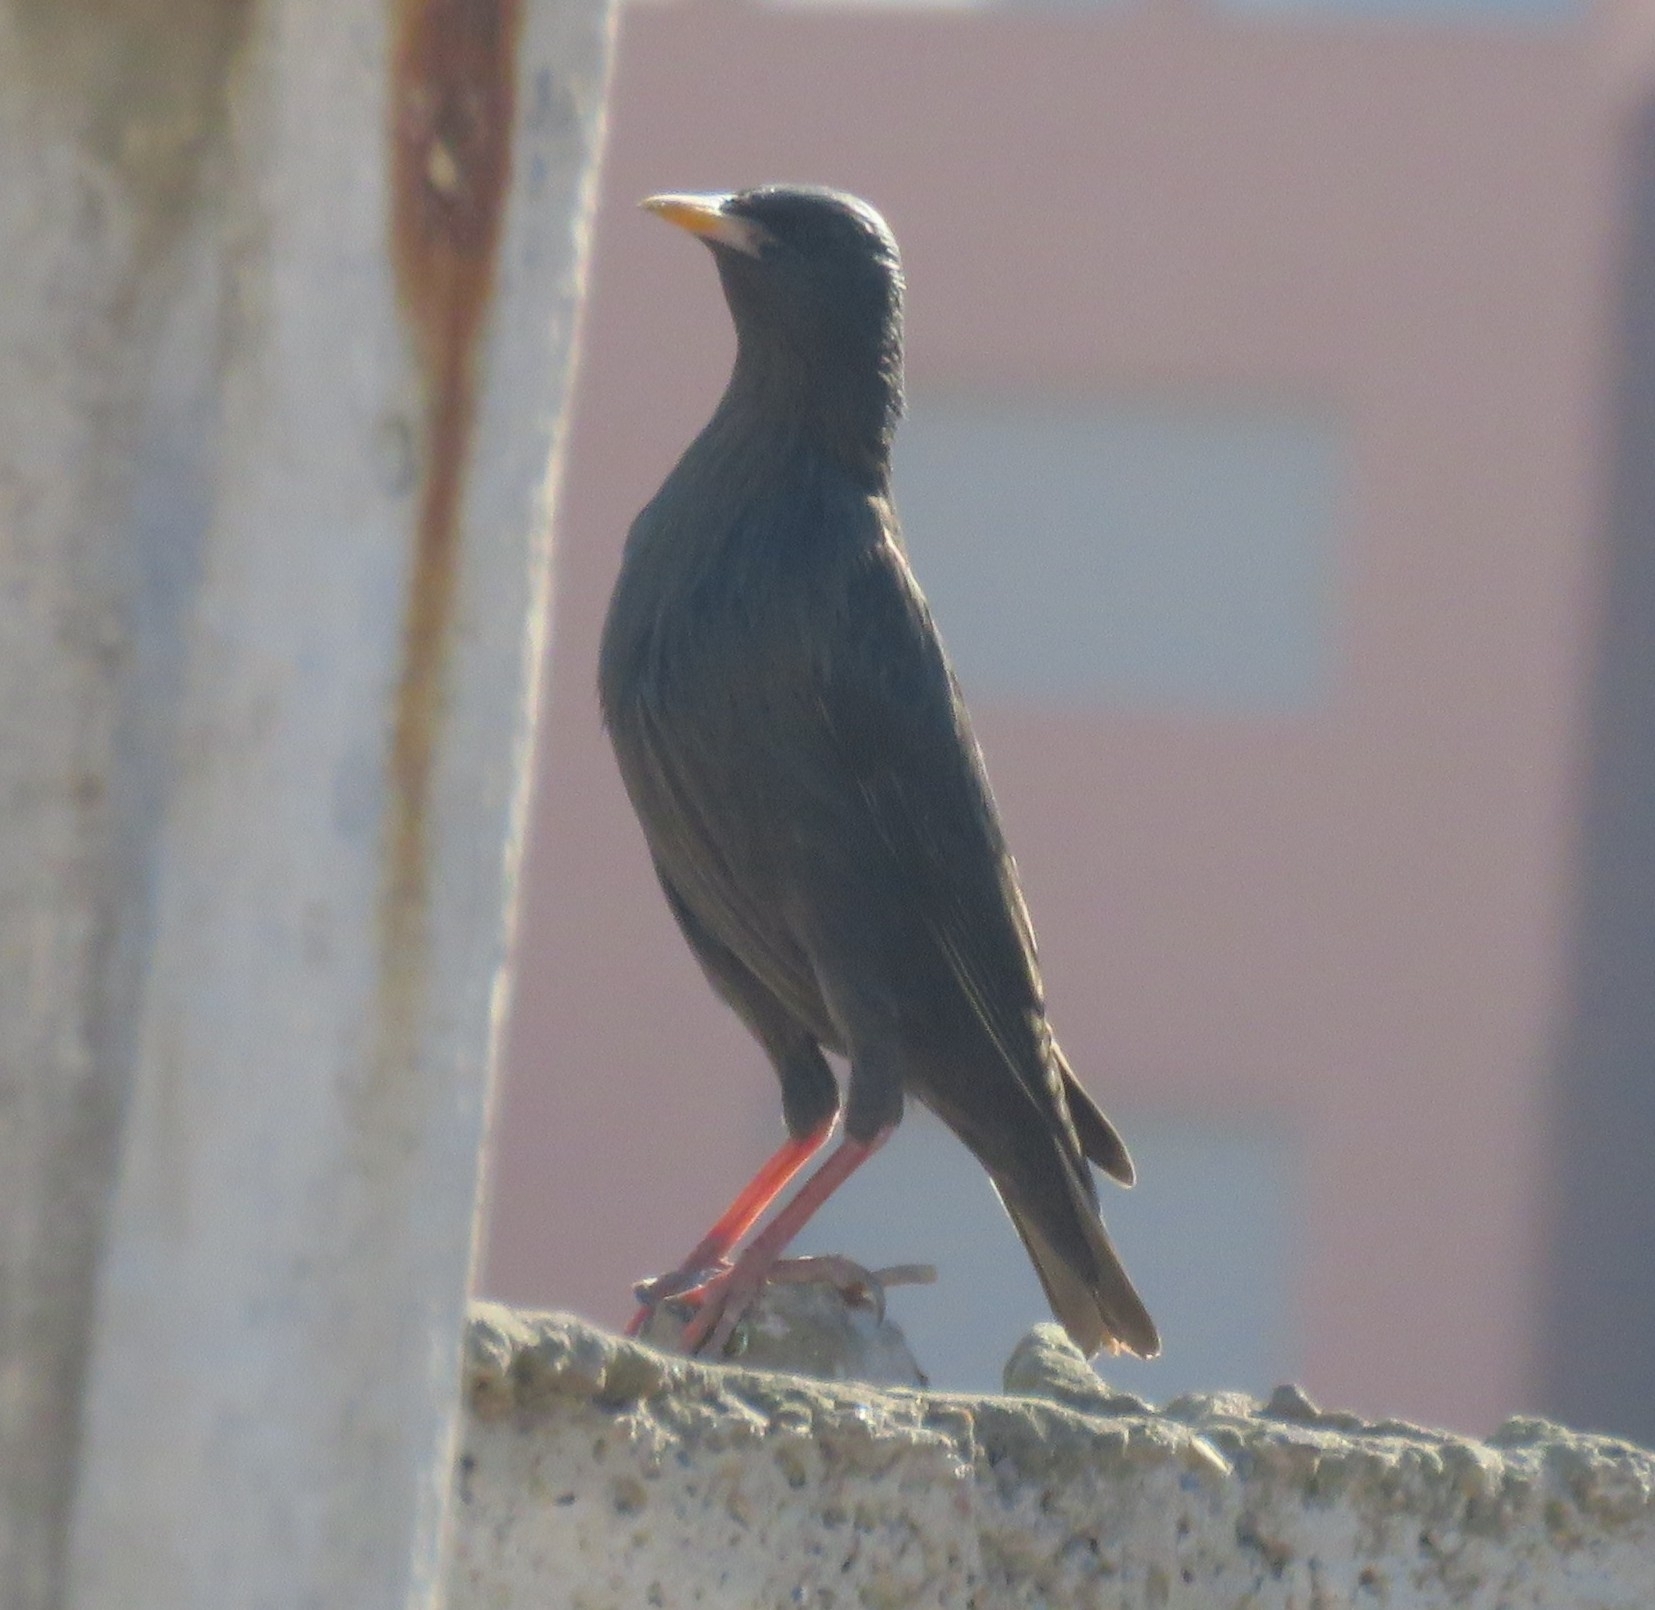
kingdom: Animalia
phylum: Chordata
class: Aves
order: Passeriformes
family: Sturnidae
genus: Sturnus
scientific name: Sturnus unicolor
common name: Spotless starling
